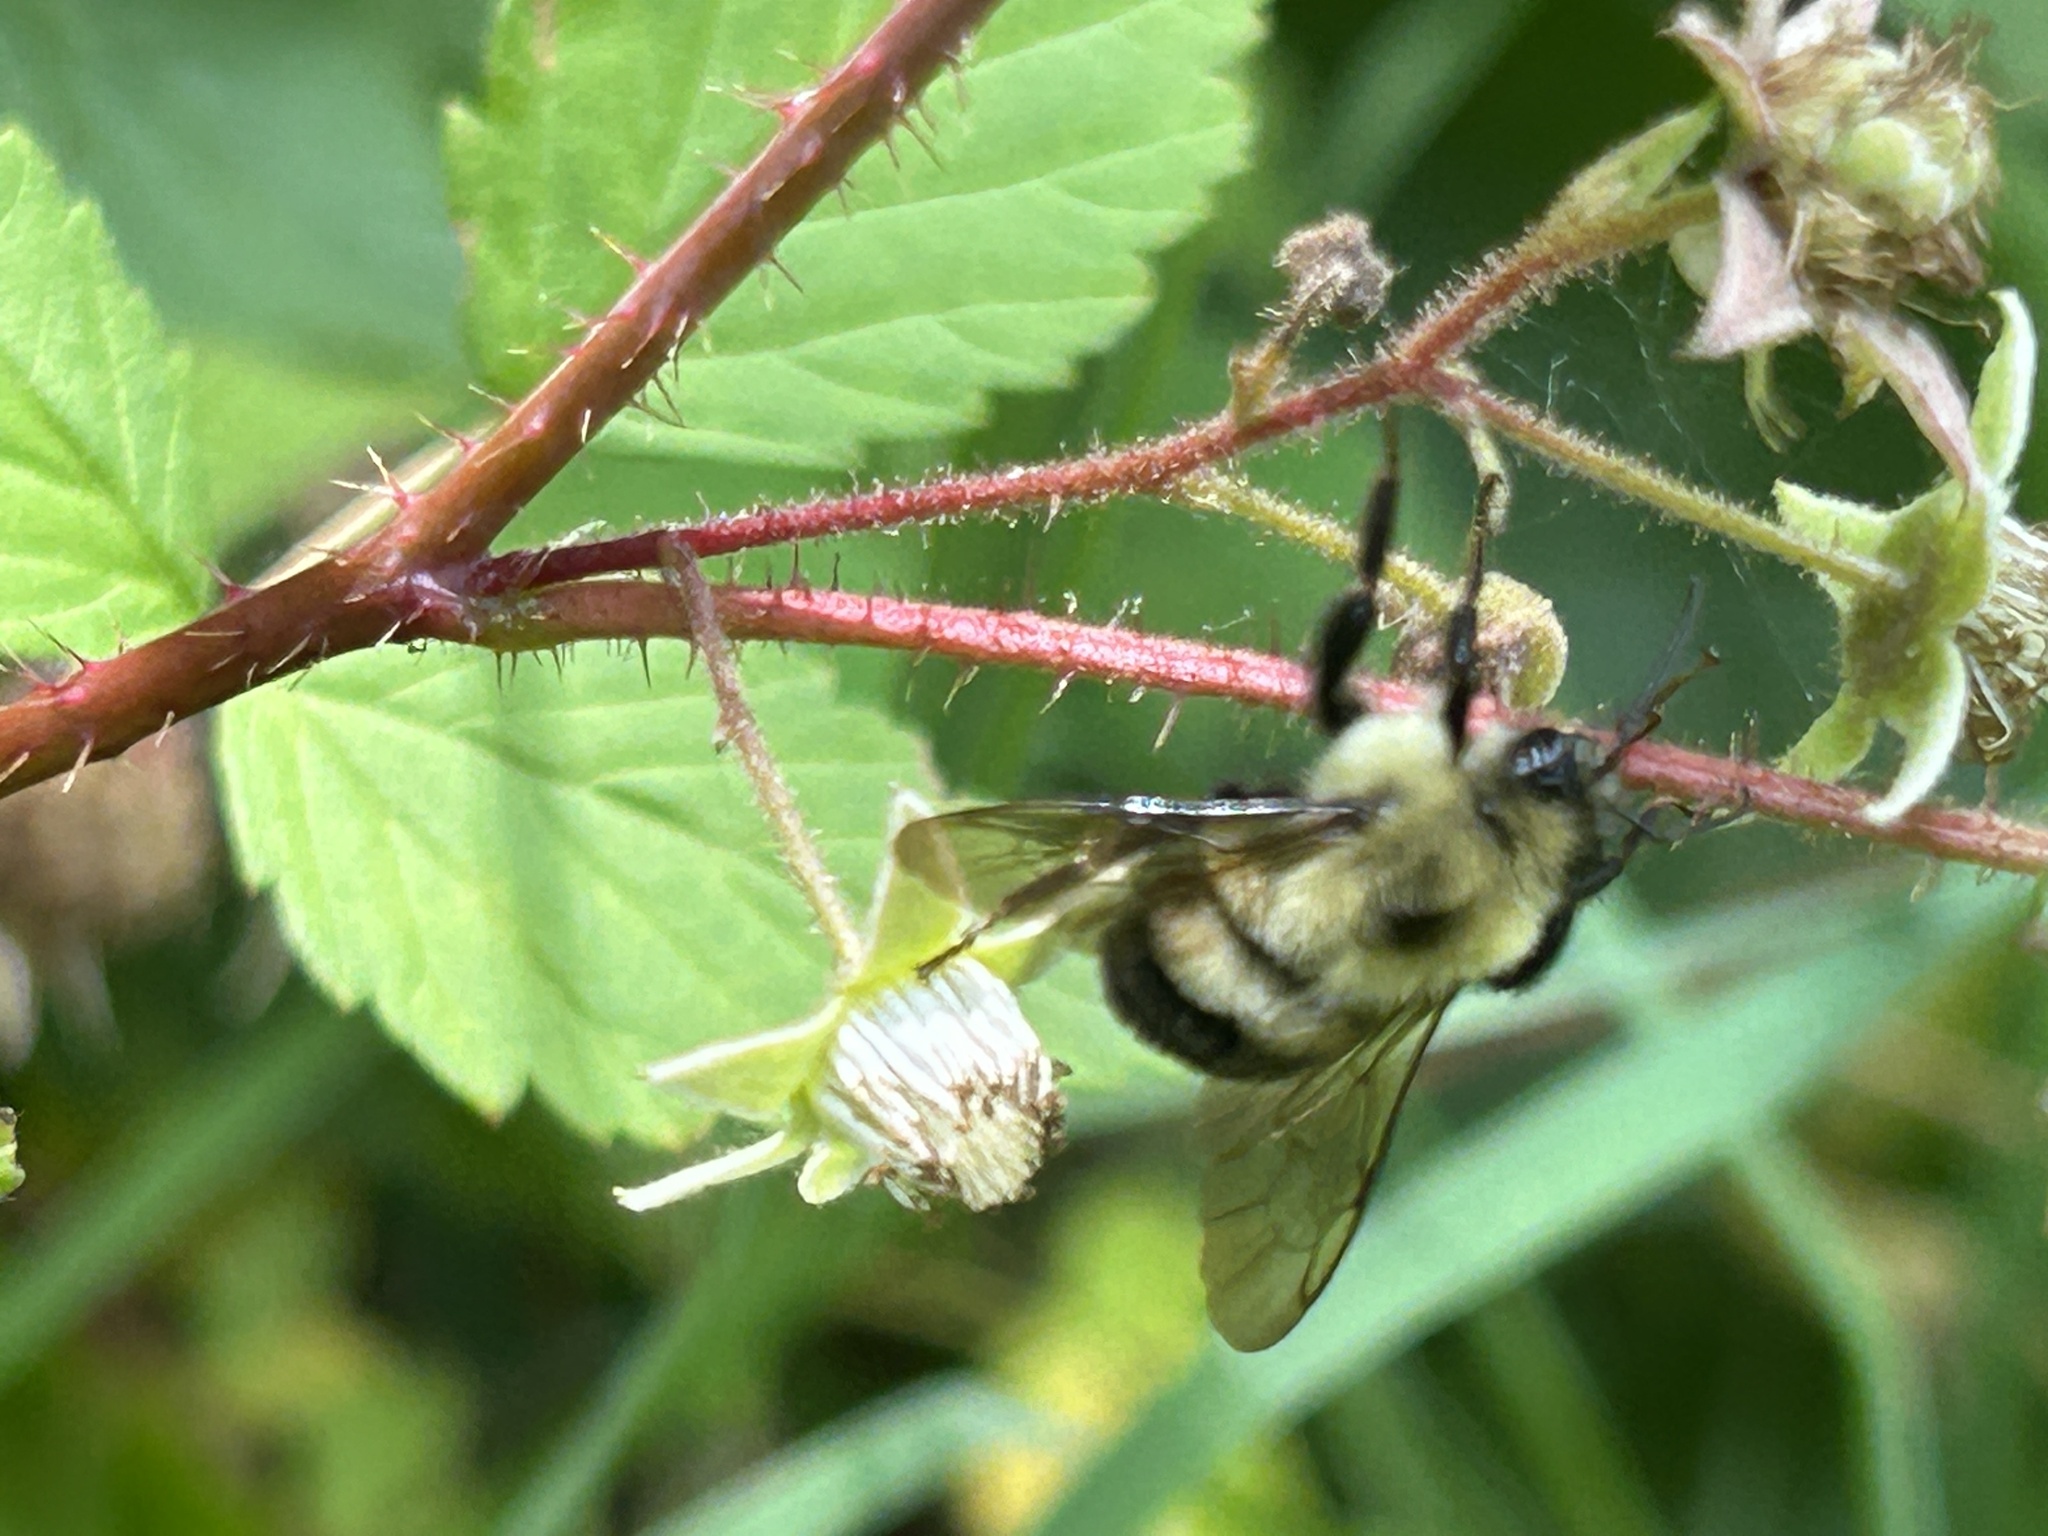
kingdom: Animalia
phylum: Arthropoda
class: Insecta
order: Hymenoptera
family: Apidae
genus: Bombus
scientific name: Bombus bimaculatus
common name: Two-spotted bumble bee
